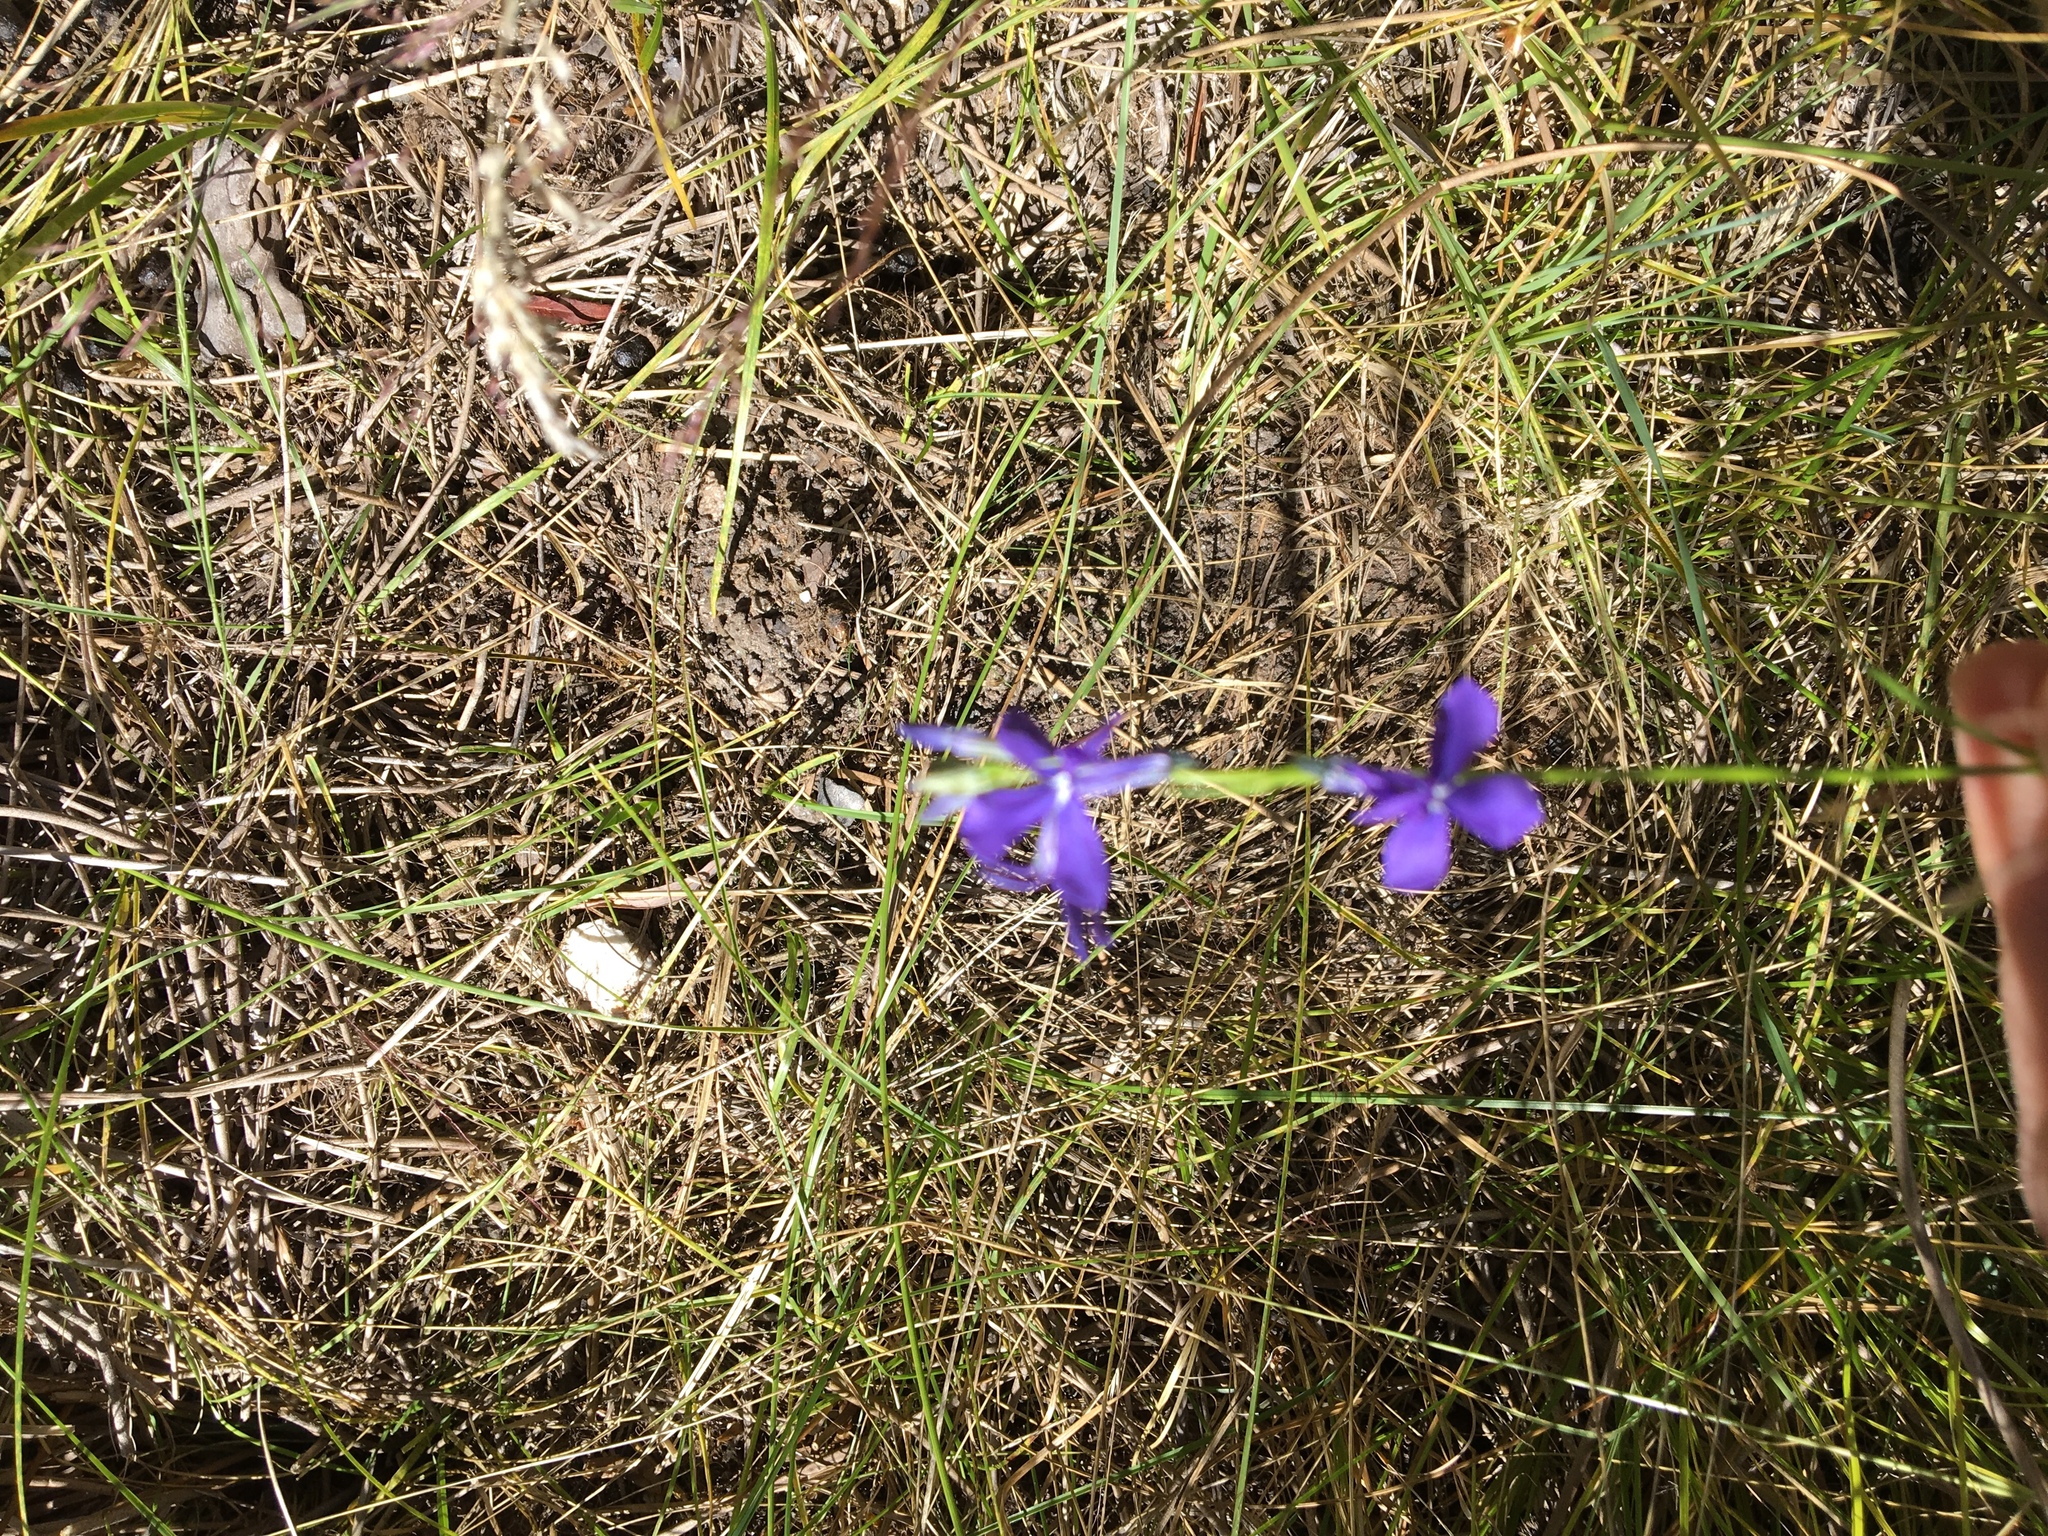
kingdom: Plantae
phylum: Tracheophyta
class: Magnoliopsida
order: Asterales
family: Campanulaceae
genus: Lobelia
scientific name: Lobelia anatina
